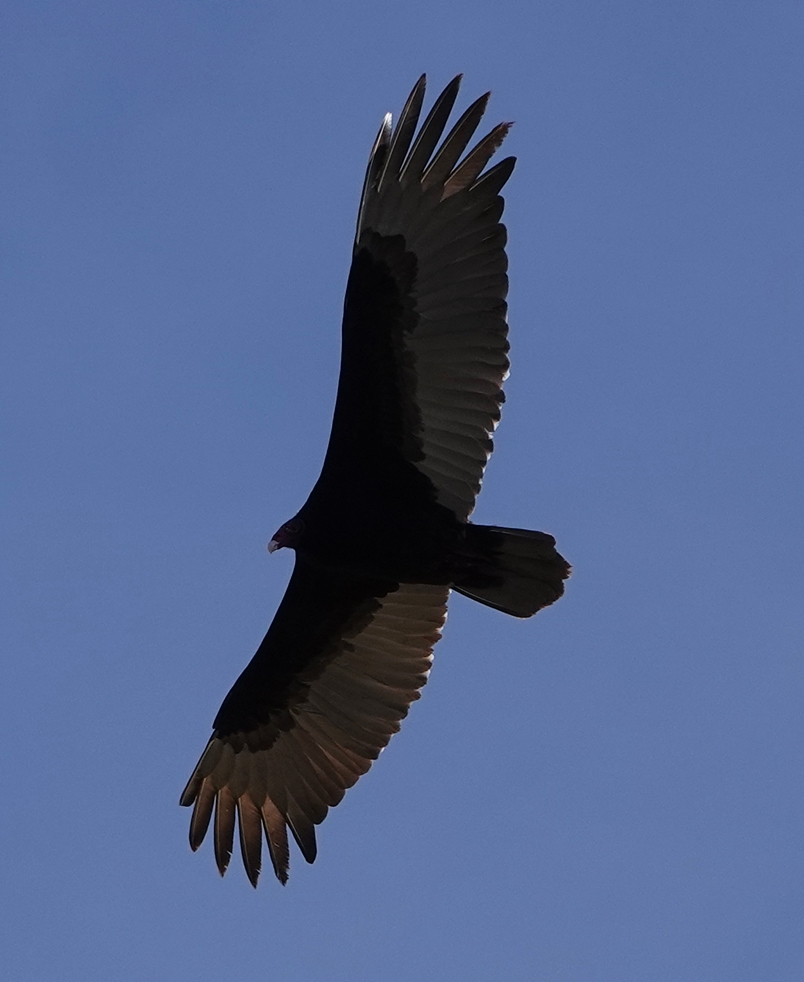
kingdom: Animalia
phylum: Chordata
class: Aves
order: Accipitriformes
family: Cathartidae
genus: Cathartes
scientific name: Cathartes aura
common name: Turkey vulture
